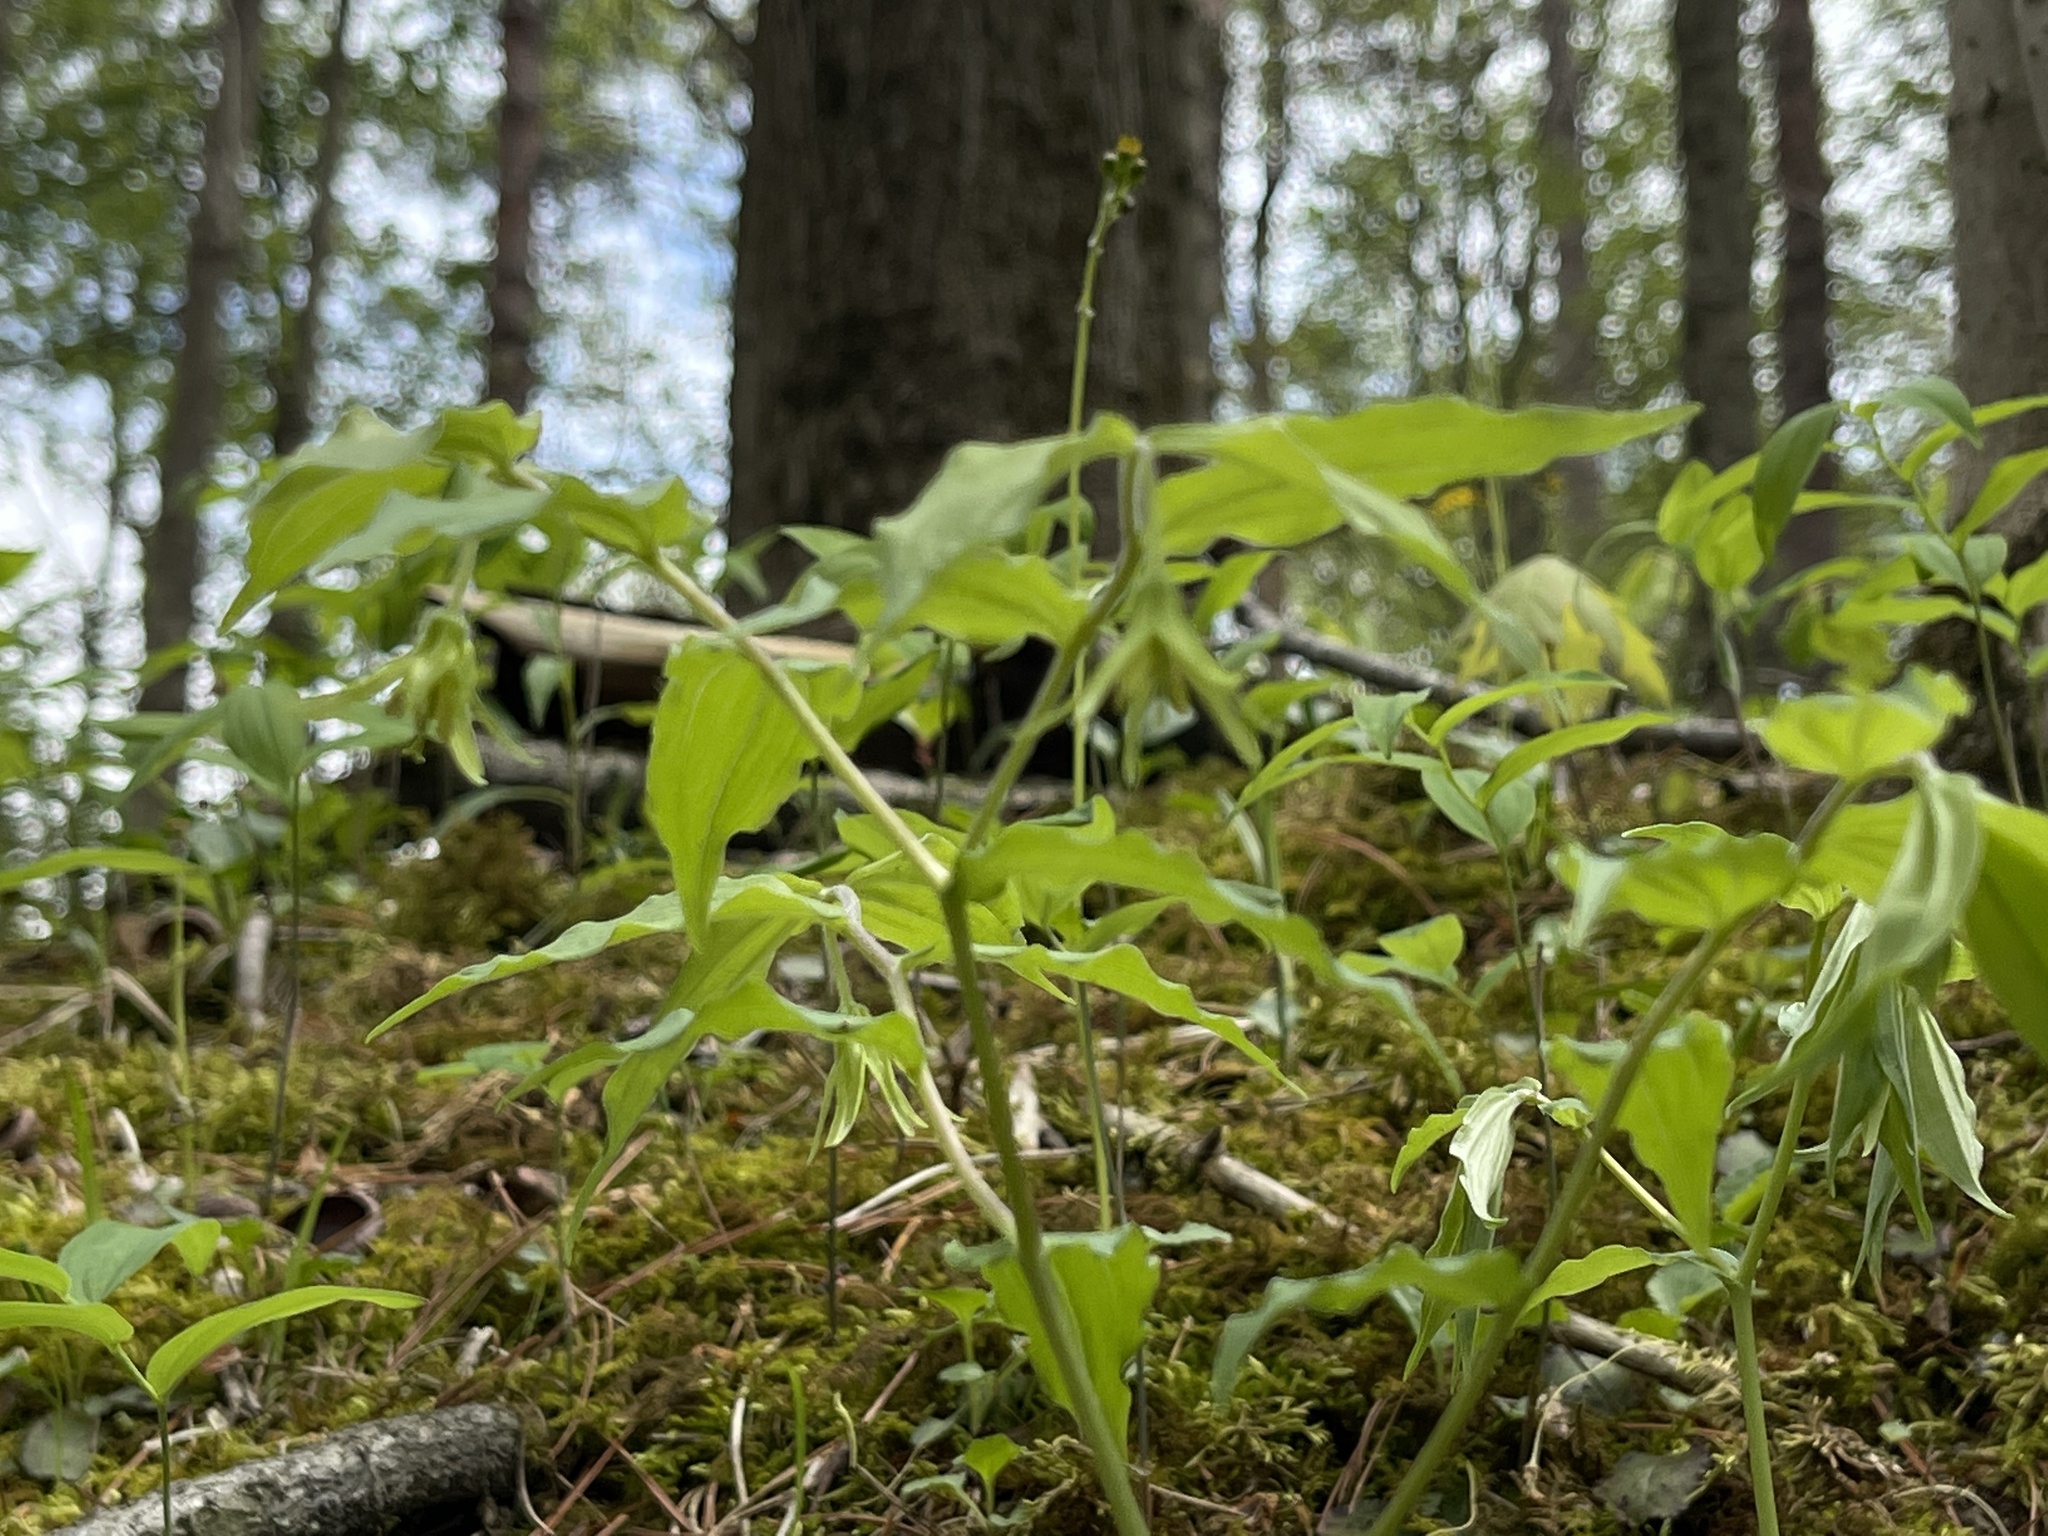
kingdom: Plantae
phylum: Tracheophyta
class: Liliopsida
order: Liliales
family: Liliaceae
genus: Prosartes
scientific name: Prosartes lanuginosa
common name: Hairy mandarin
